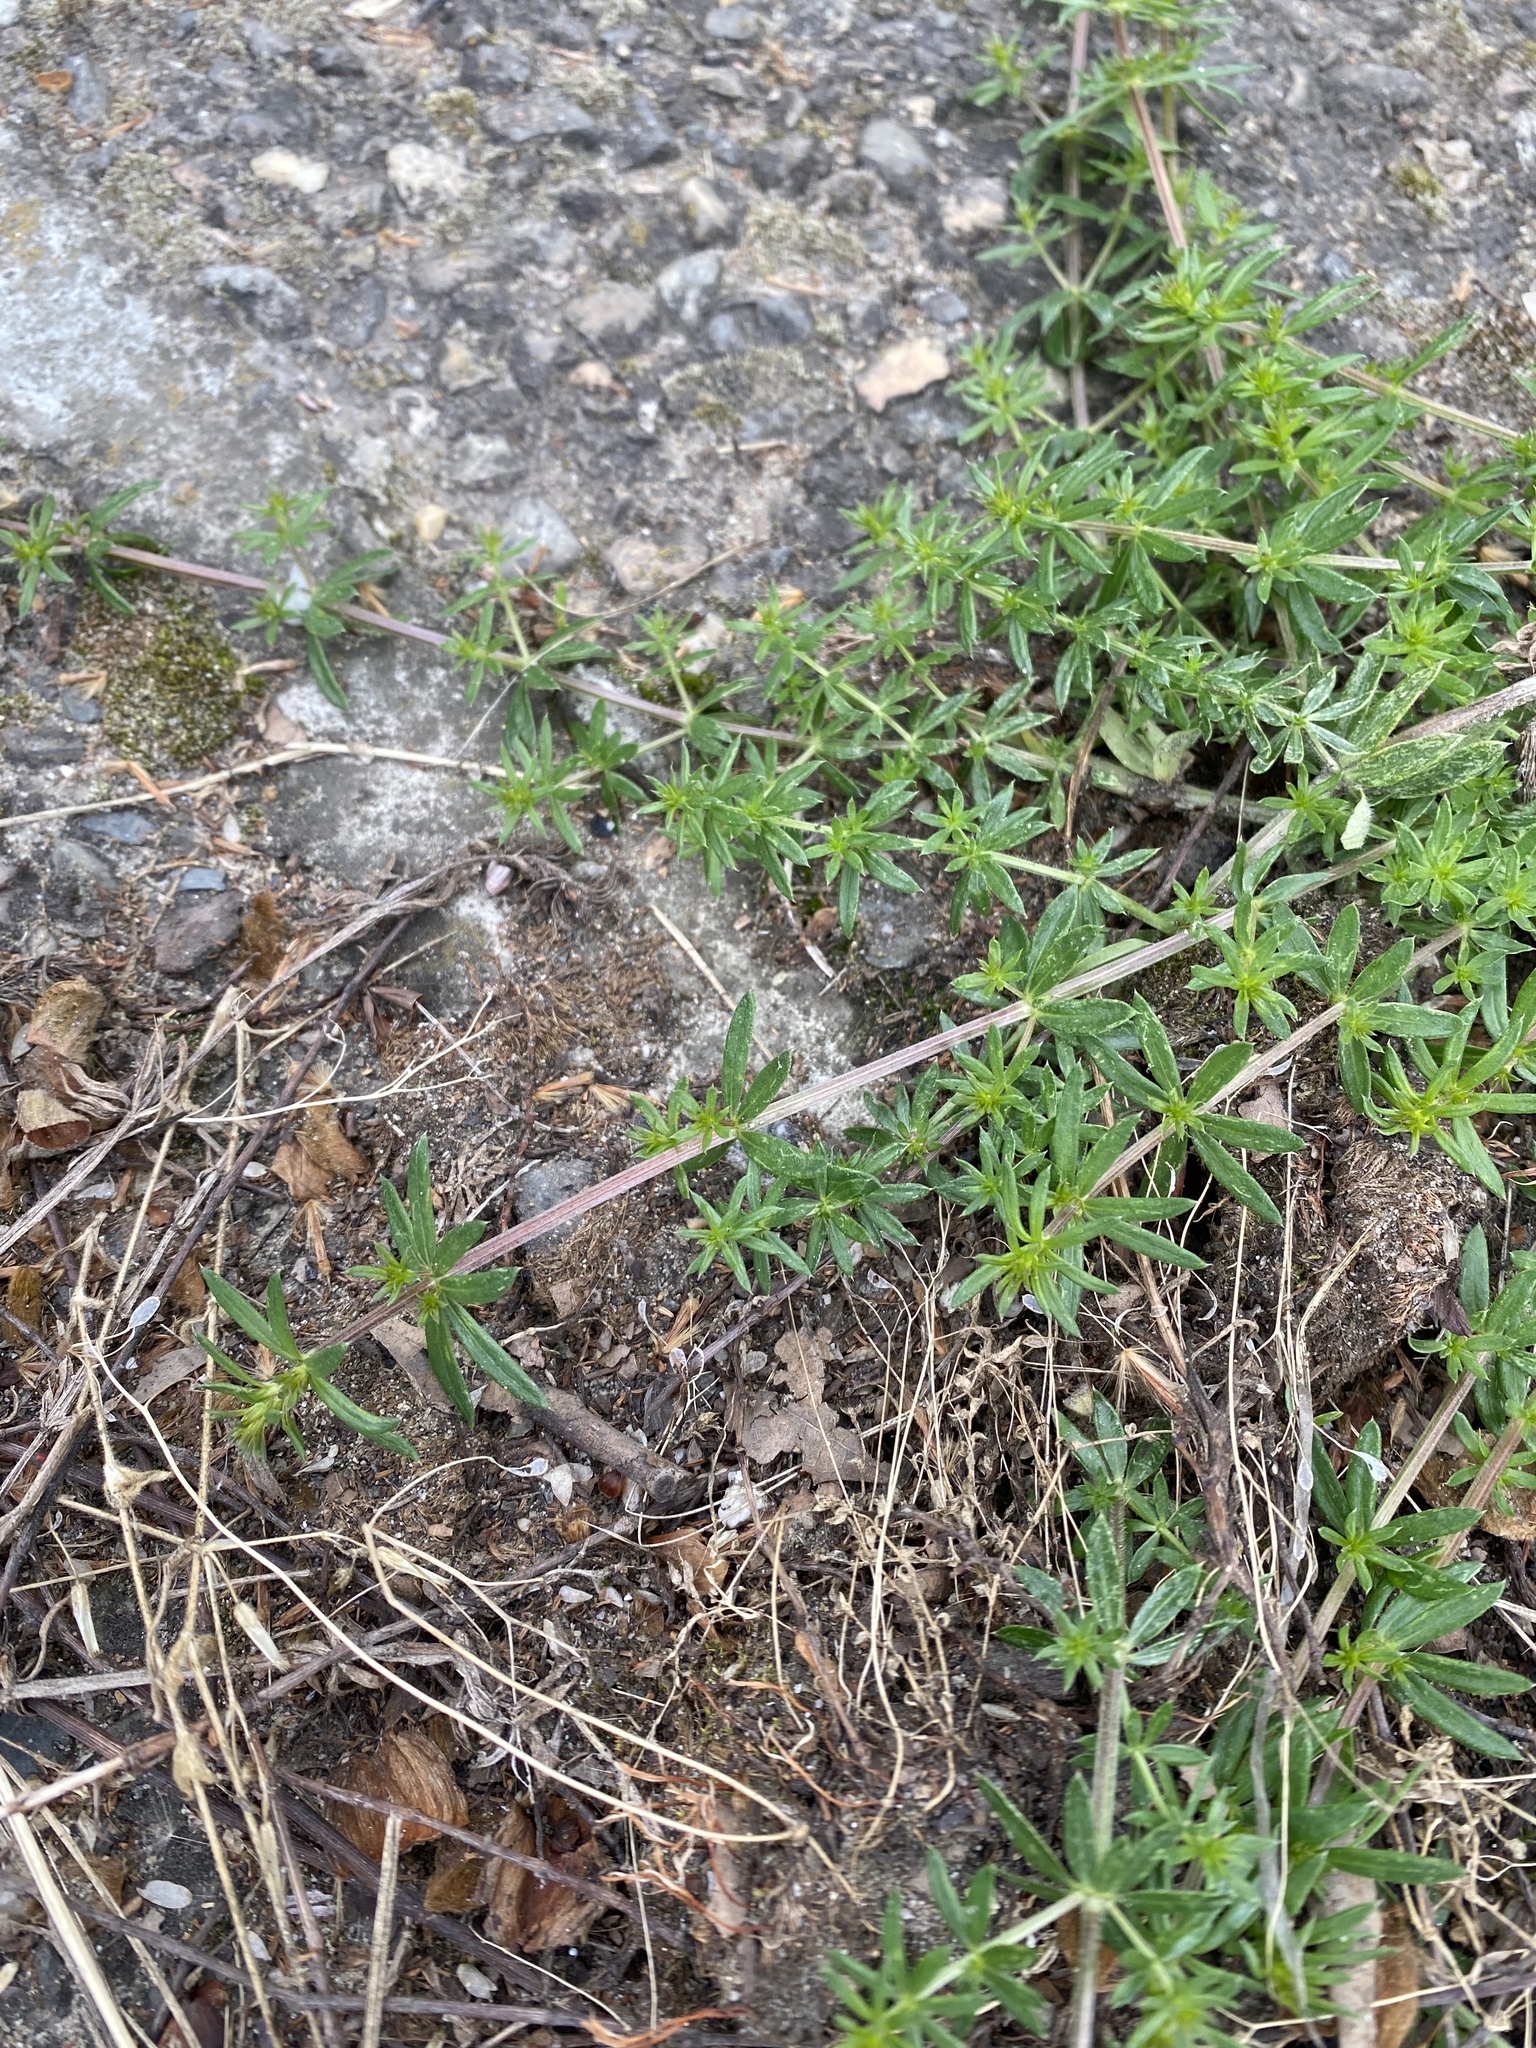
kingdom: Plantae
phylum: Tracheophyta
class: Magnoliopsida
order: Gentianales
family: Rubiaceae
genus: Galium
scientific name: Galium humifusum
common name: Spreading bedstraw
